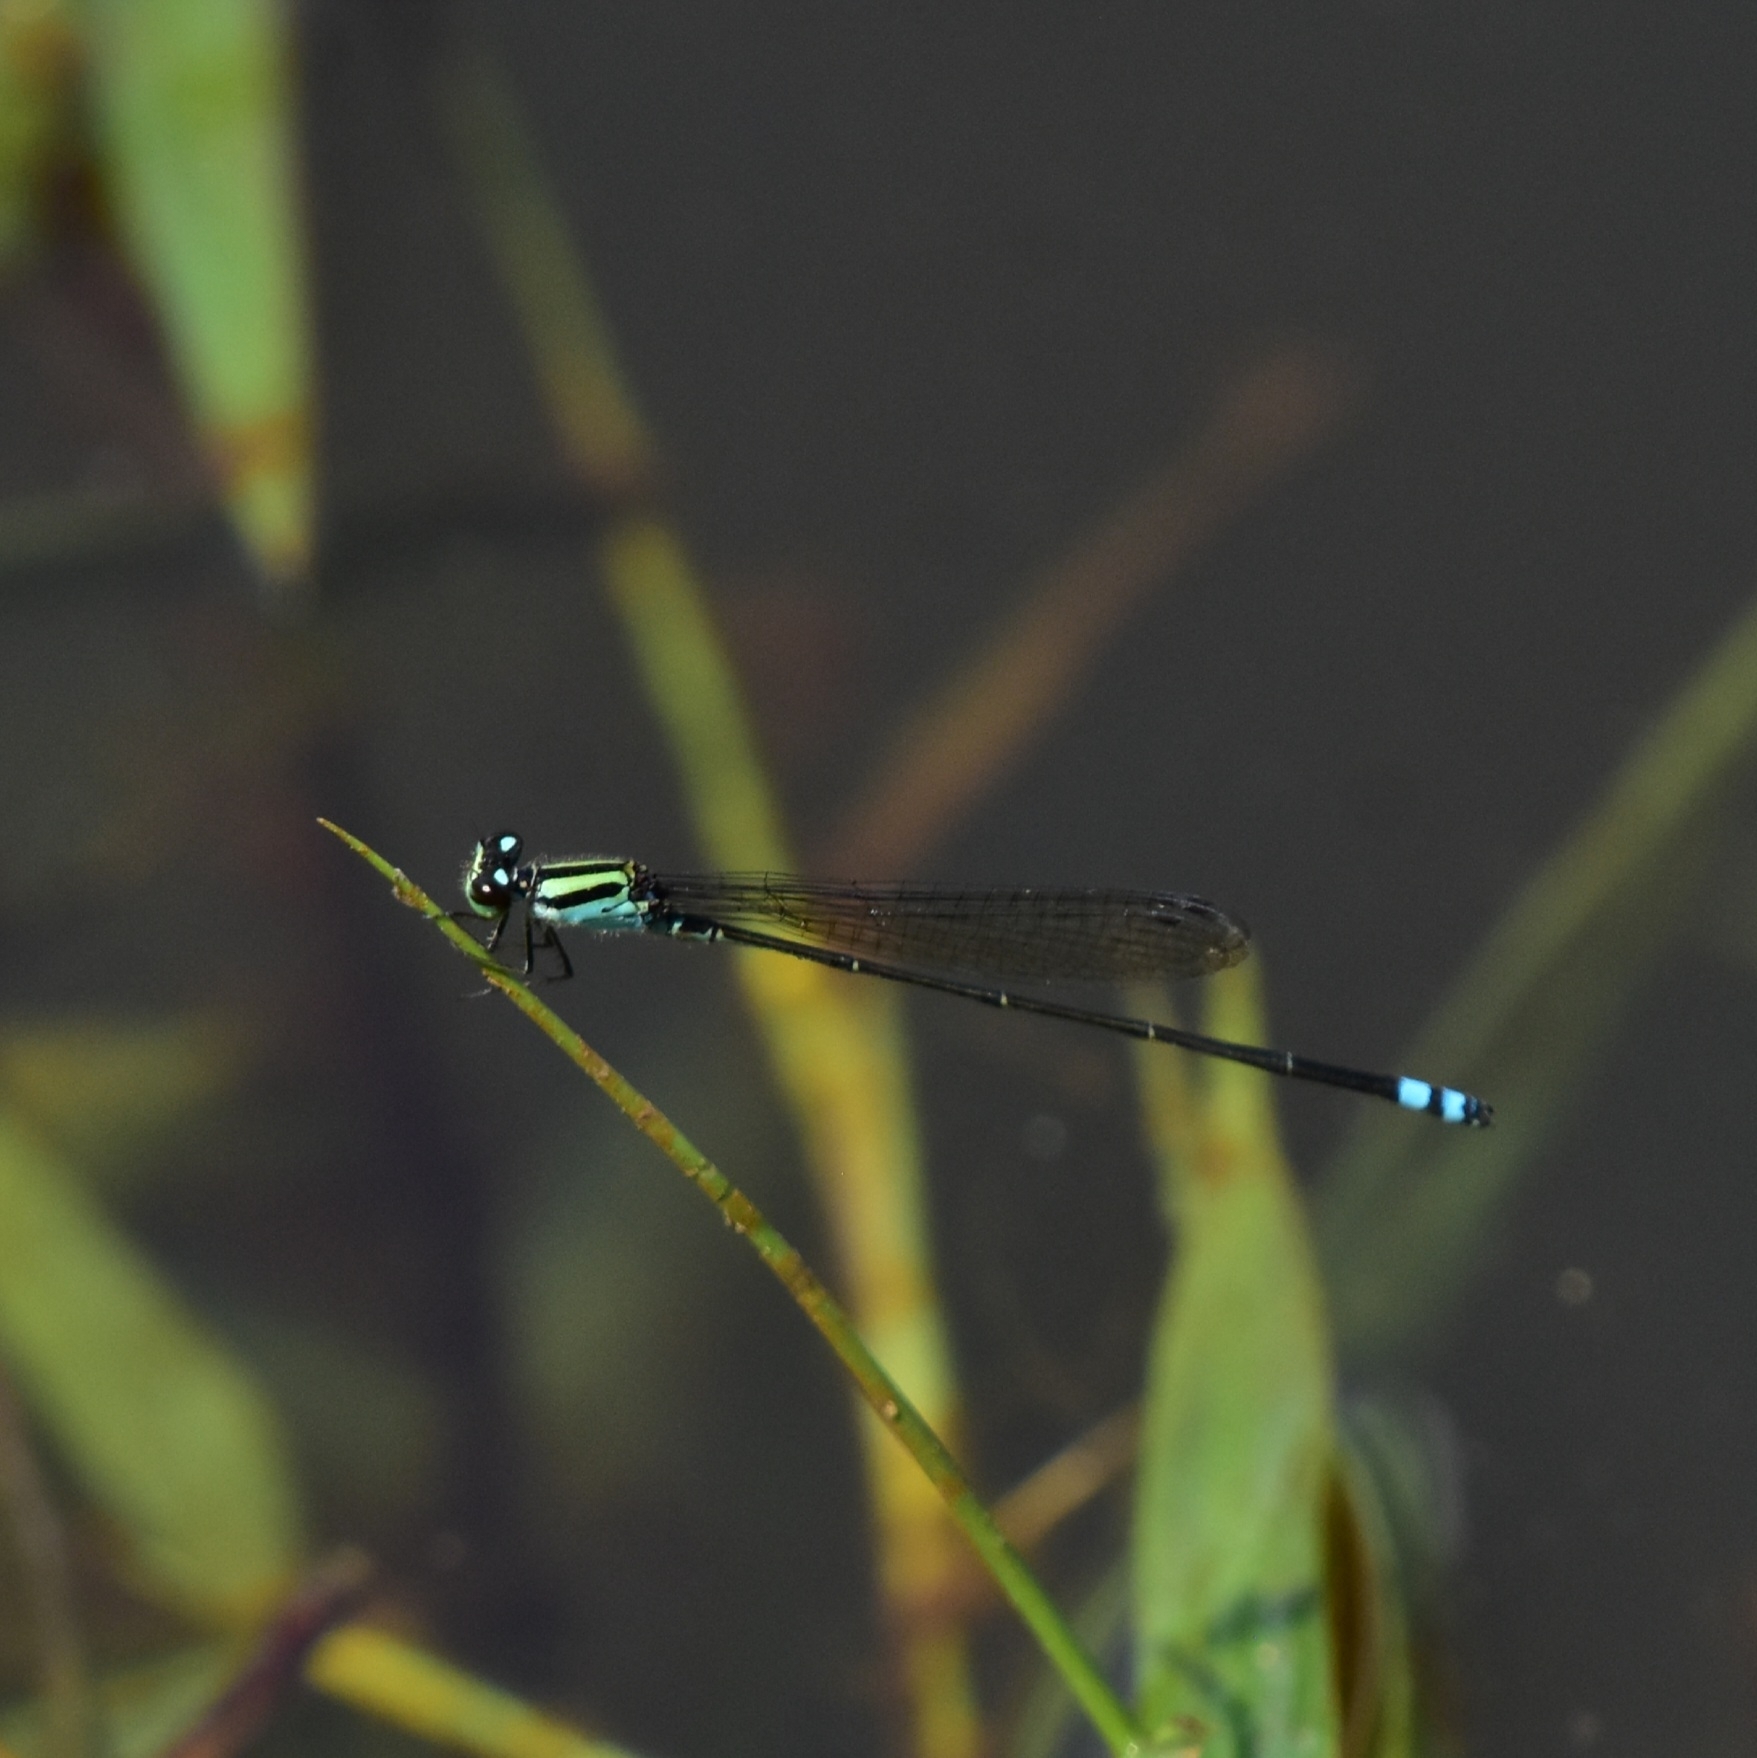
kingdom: Animalia
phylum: Arthropoda
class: Insecta
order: Odonata
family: Coenagrionidae
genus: Pseudagrion
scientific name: Pseudagrion indicum
